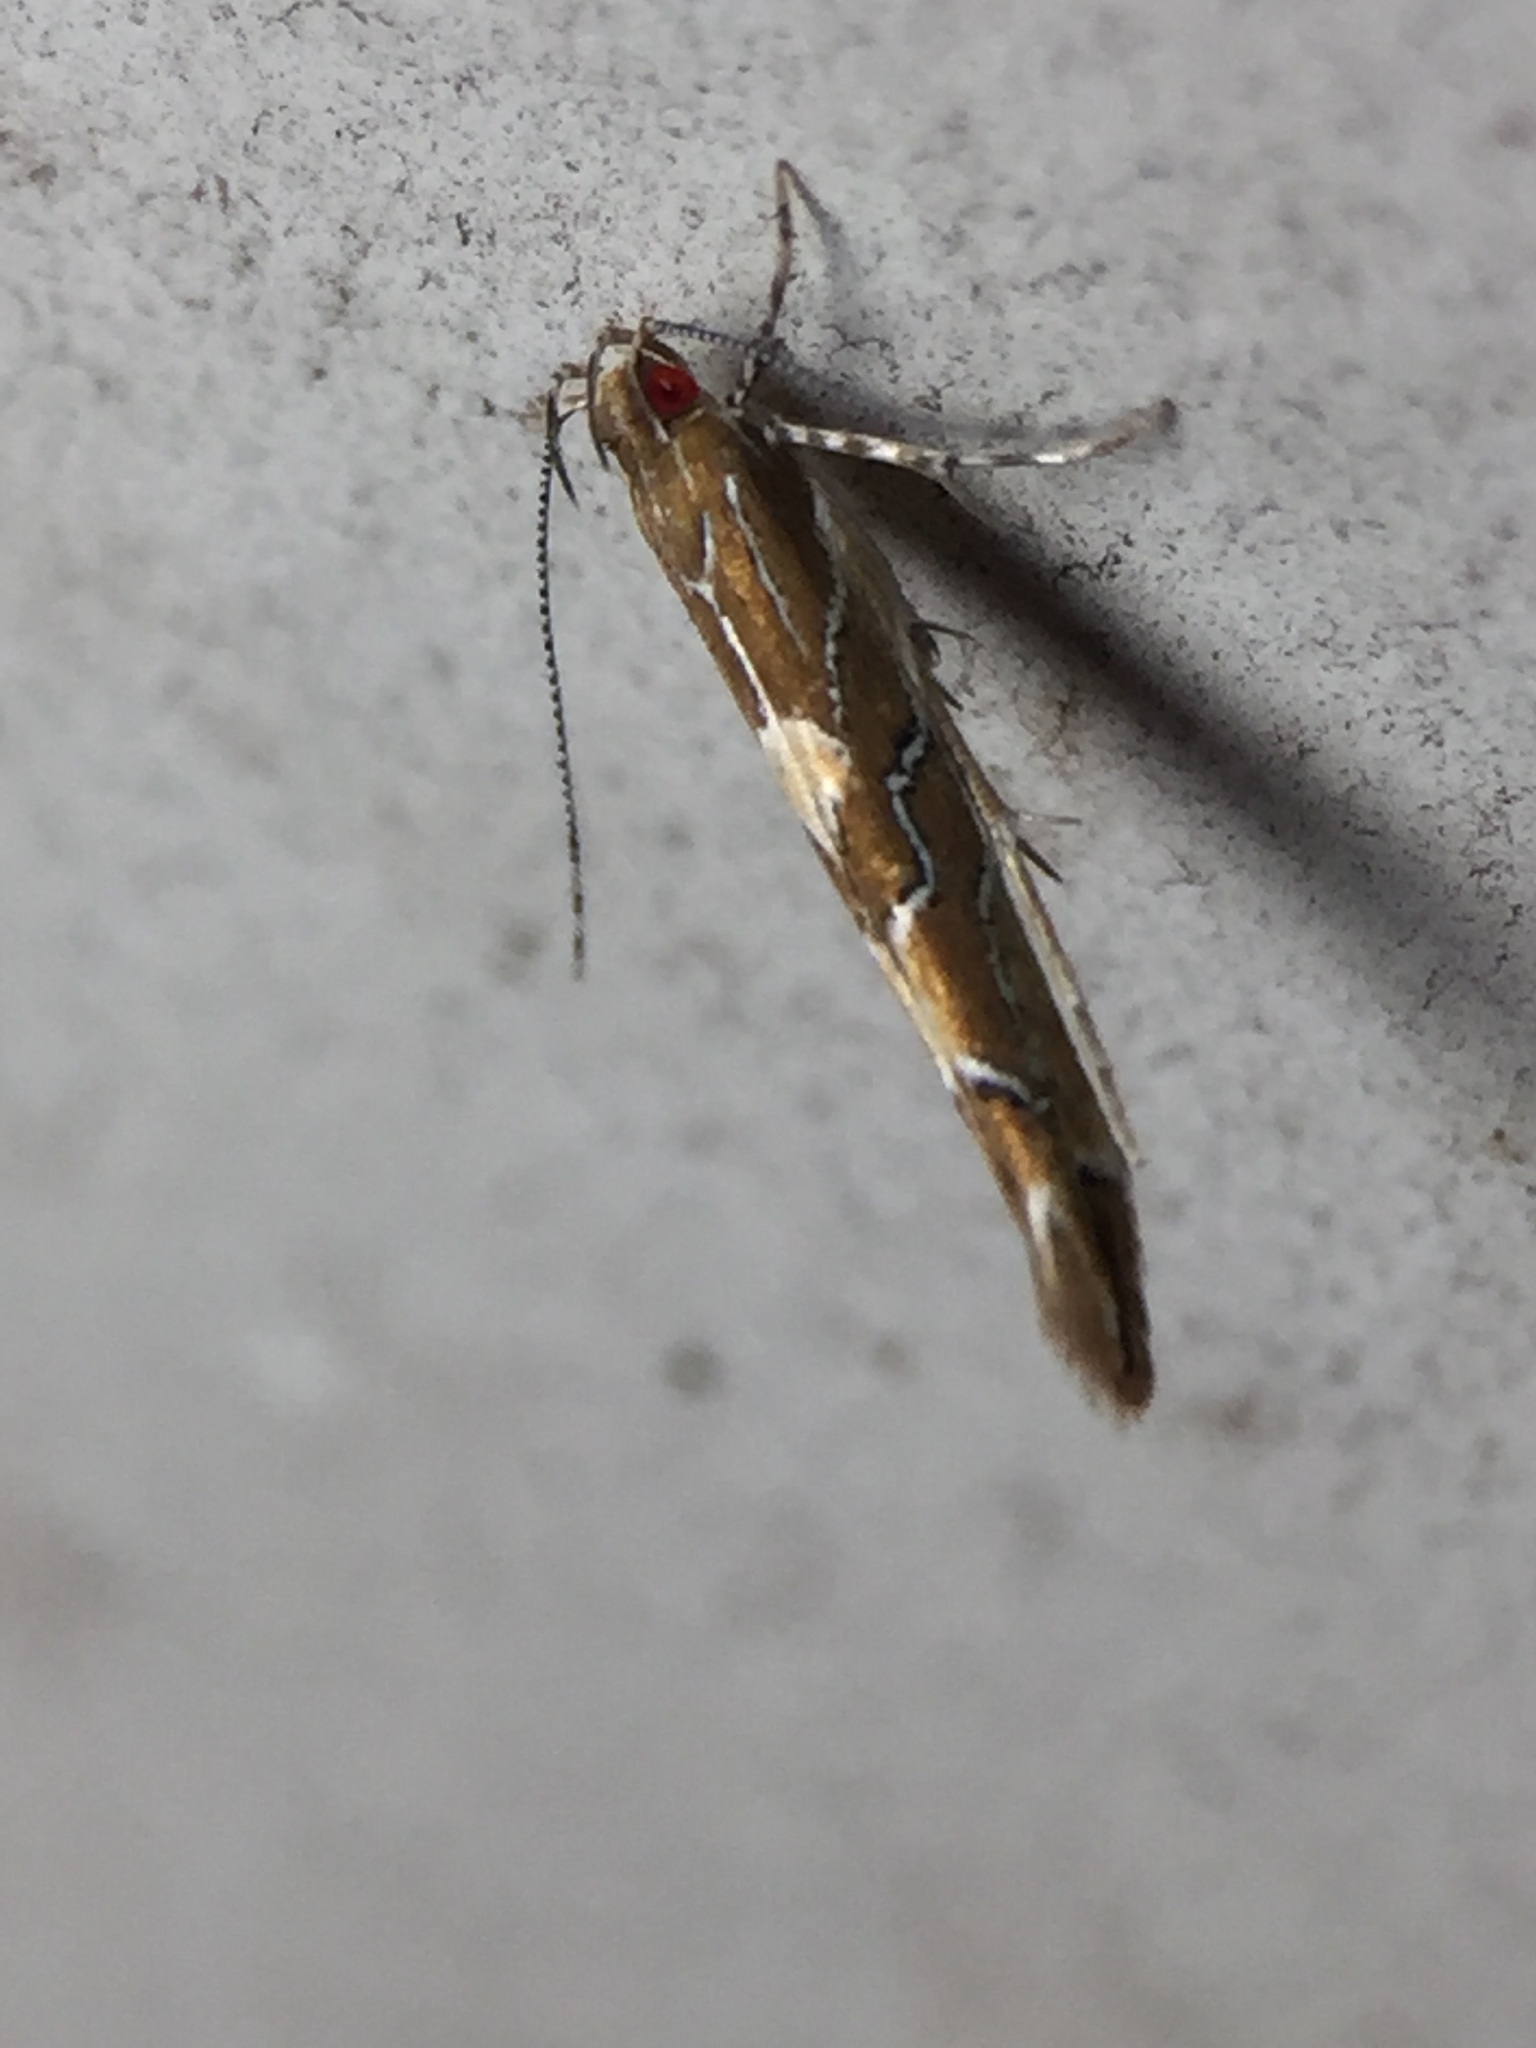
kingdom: Animalia
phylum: Arthropoda
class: Insecta
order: Lepidoptera
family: Cosmopterigidae
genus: Pyroderces
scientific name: Pyroderces apparitella
